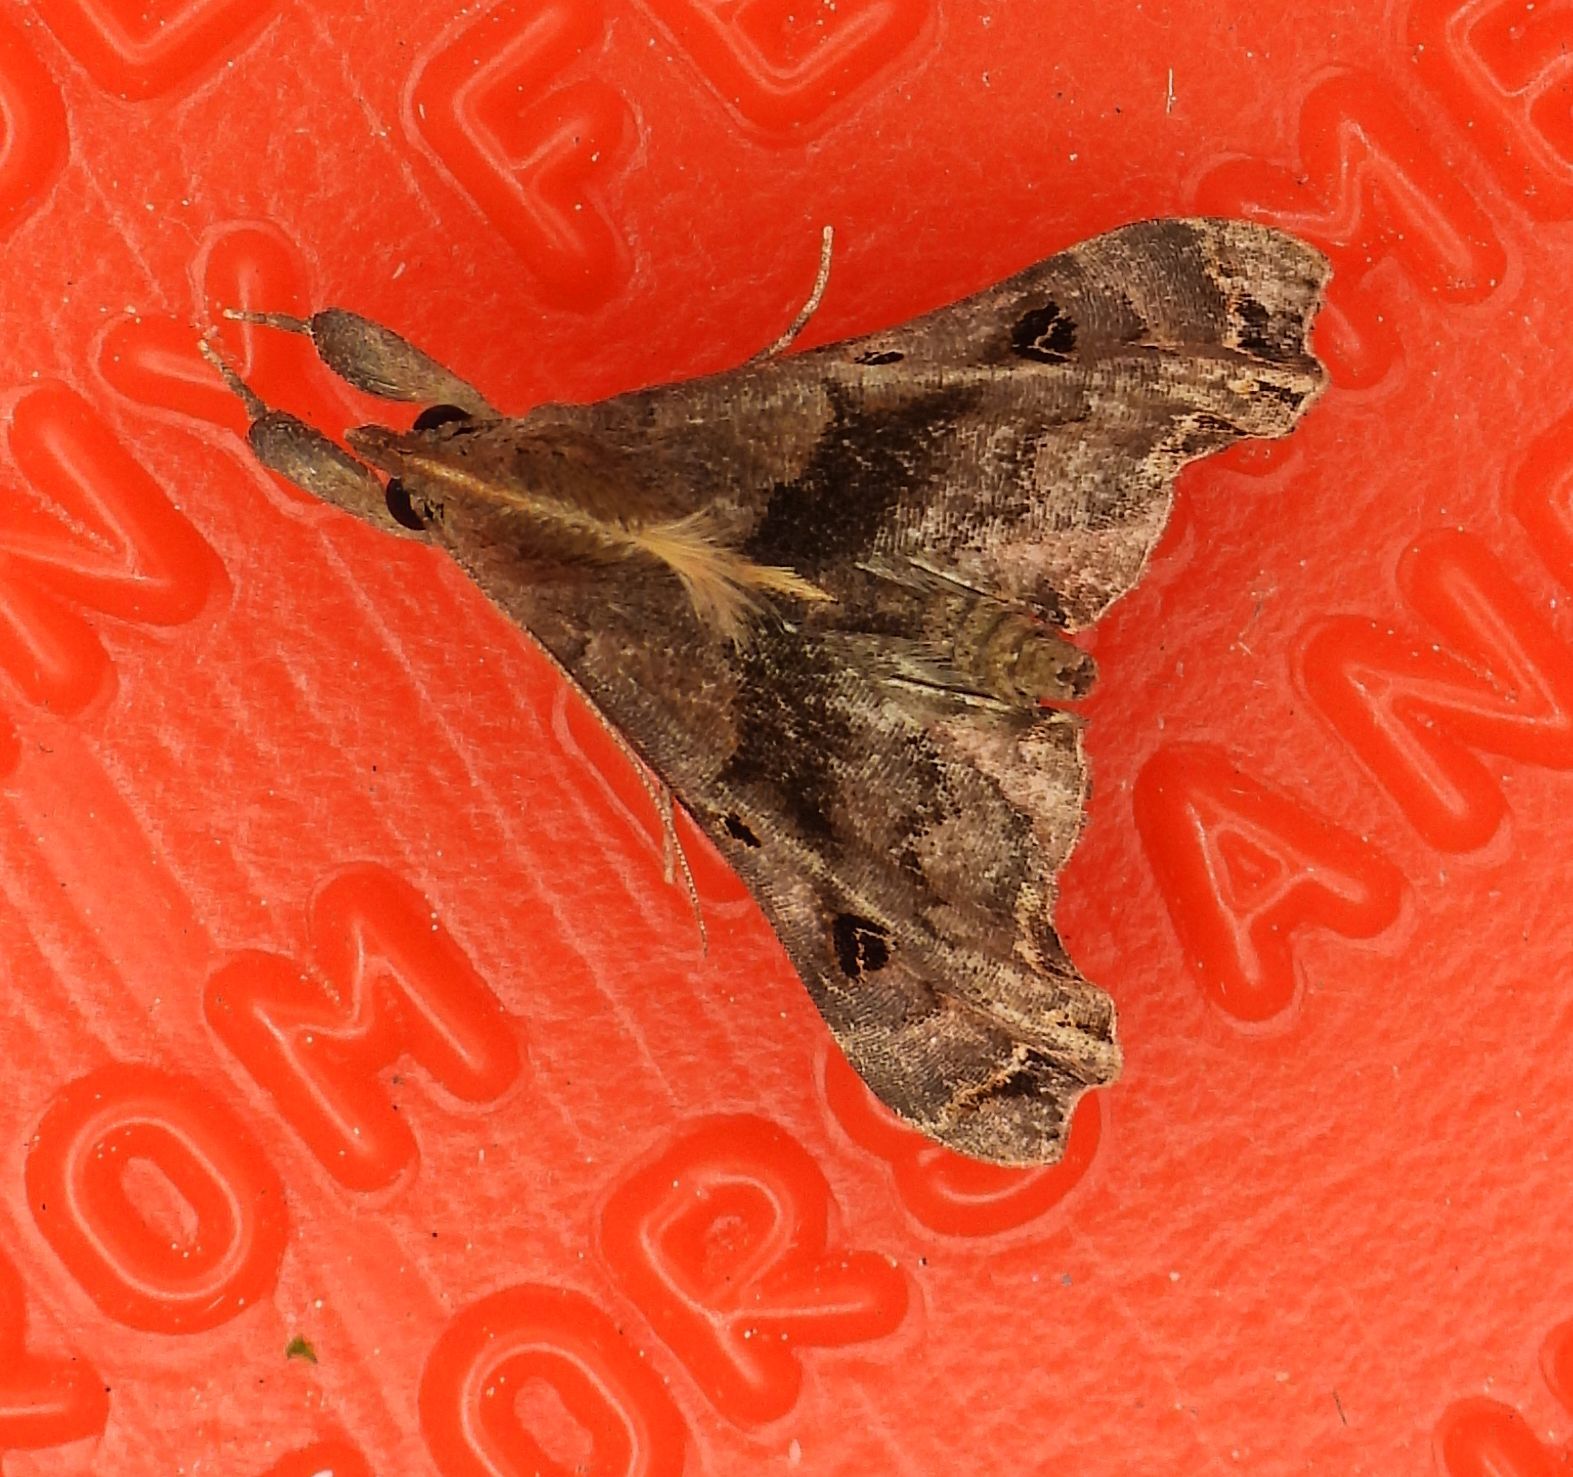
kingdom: Animalia
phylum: Arthropoda
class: Insecta
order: Lepidoptera
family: Erebidae
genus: Palthis
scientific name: Palthis asopialis
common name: Faint-spotted palthis moth
